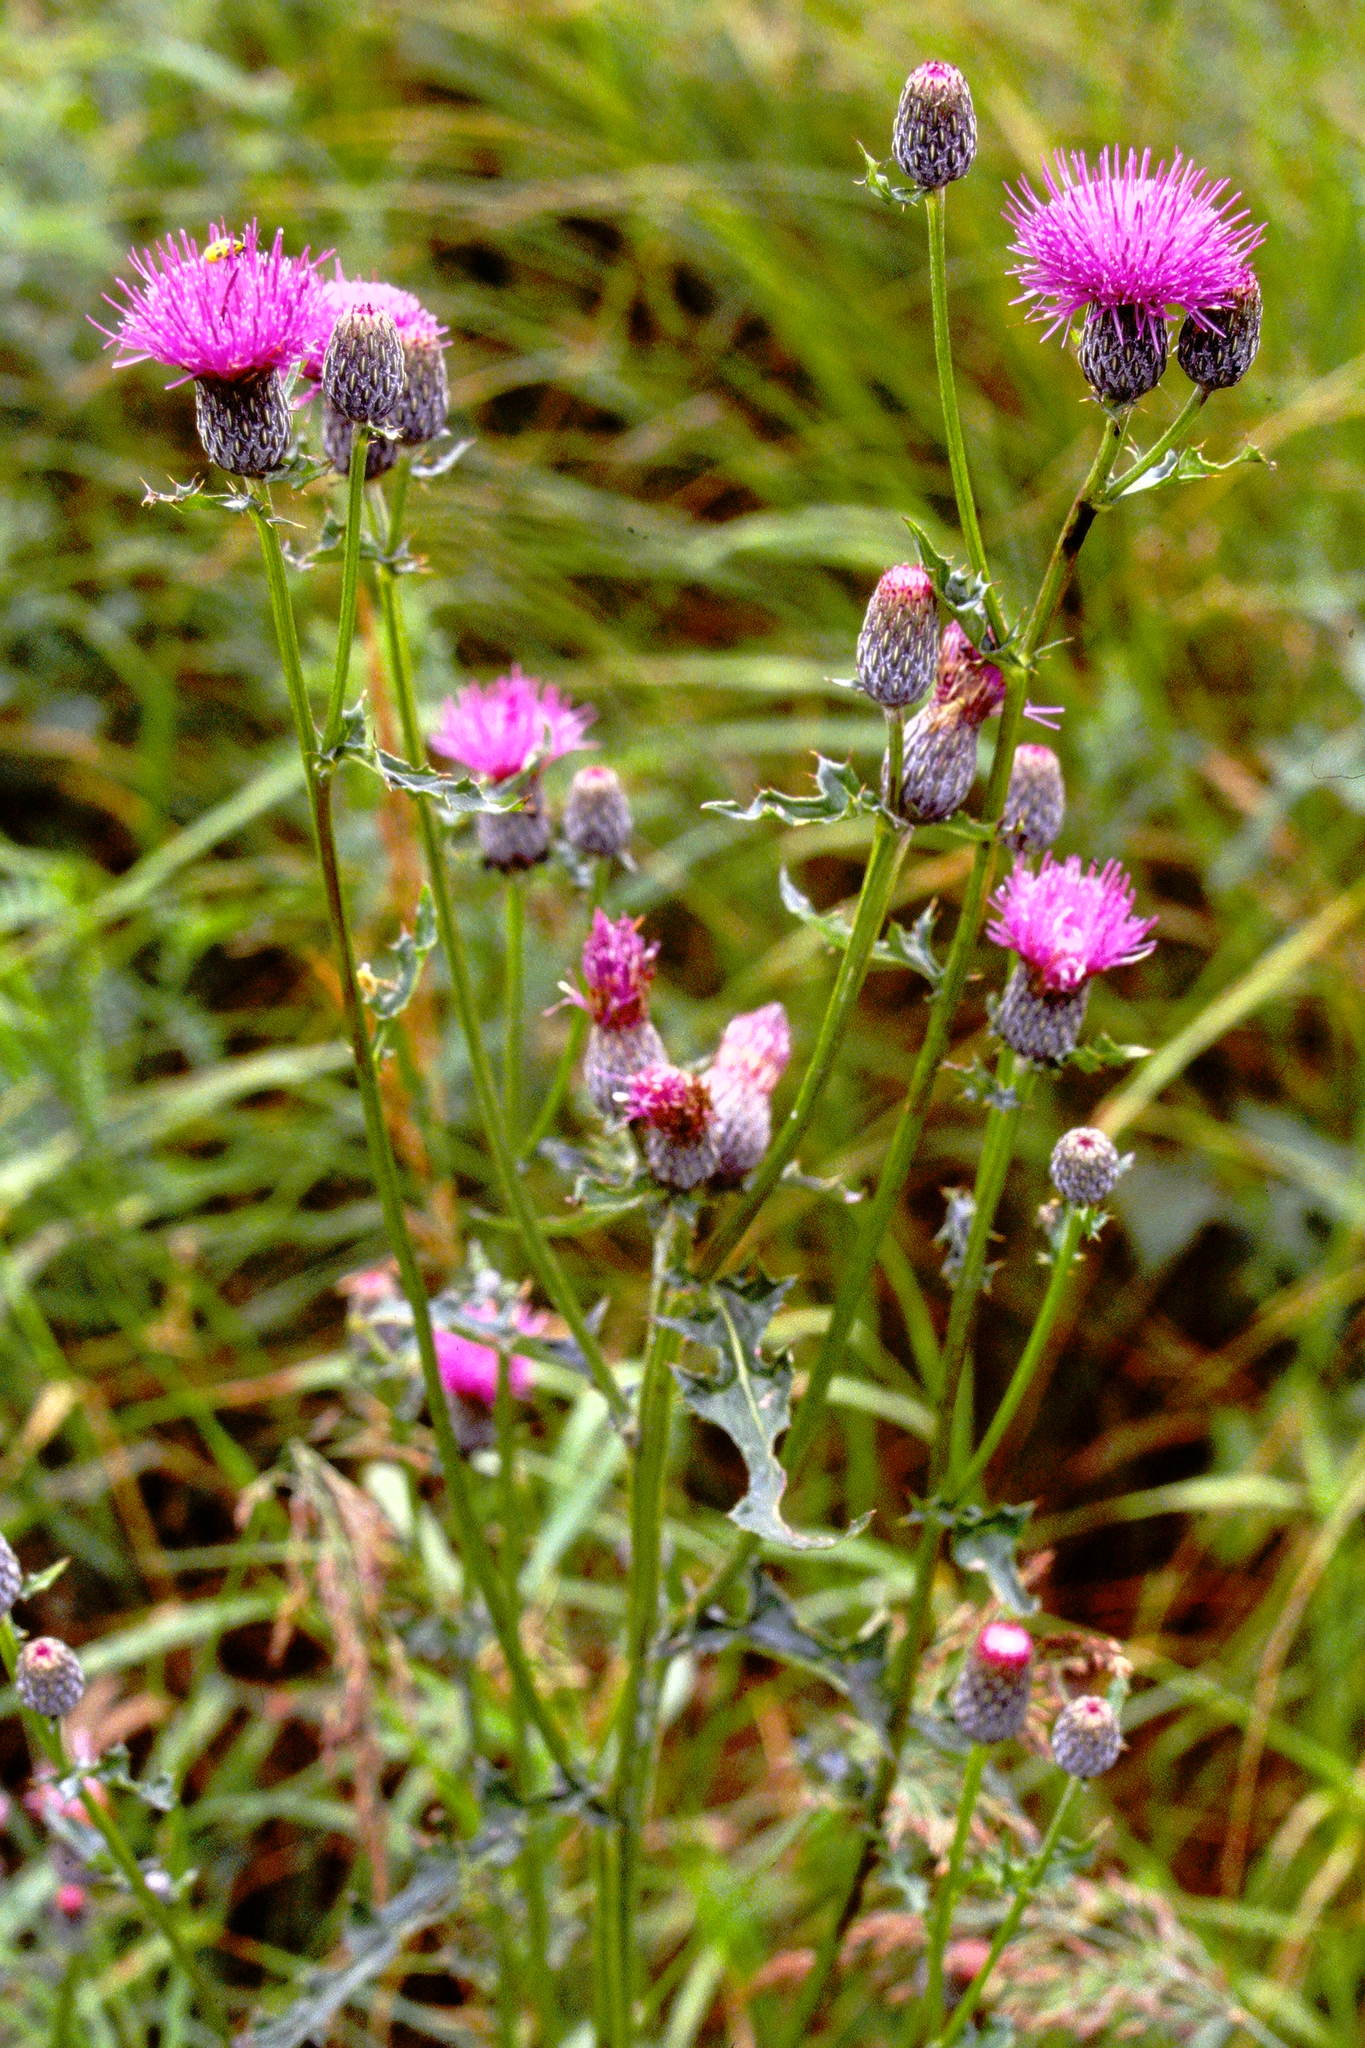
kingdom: Plantae
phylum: Tracheophyta
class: Magnoliopsida
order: Asterales
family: Asteraceae
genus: Cirsium
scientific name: Cirsium muticum
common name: Dunce-nettle
